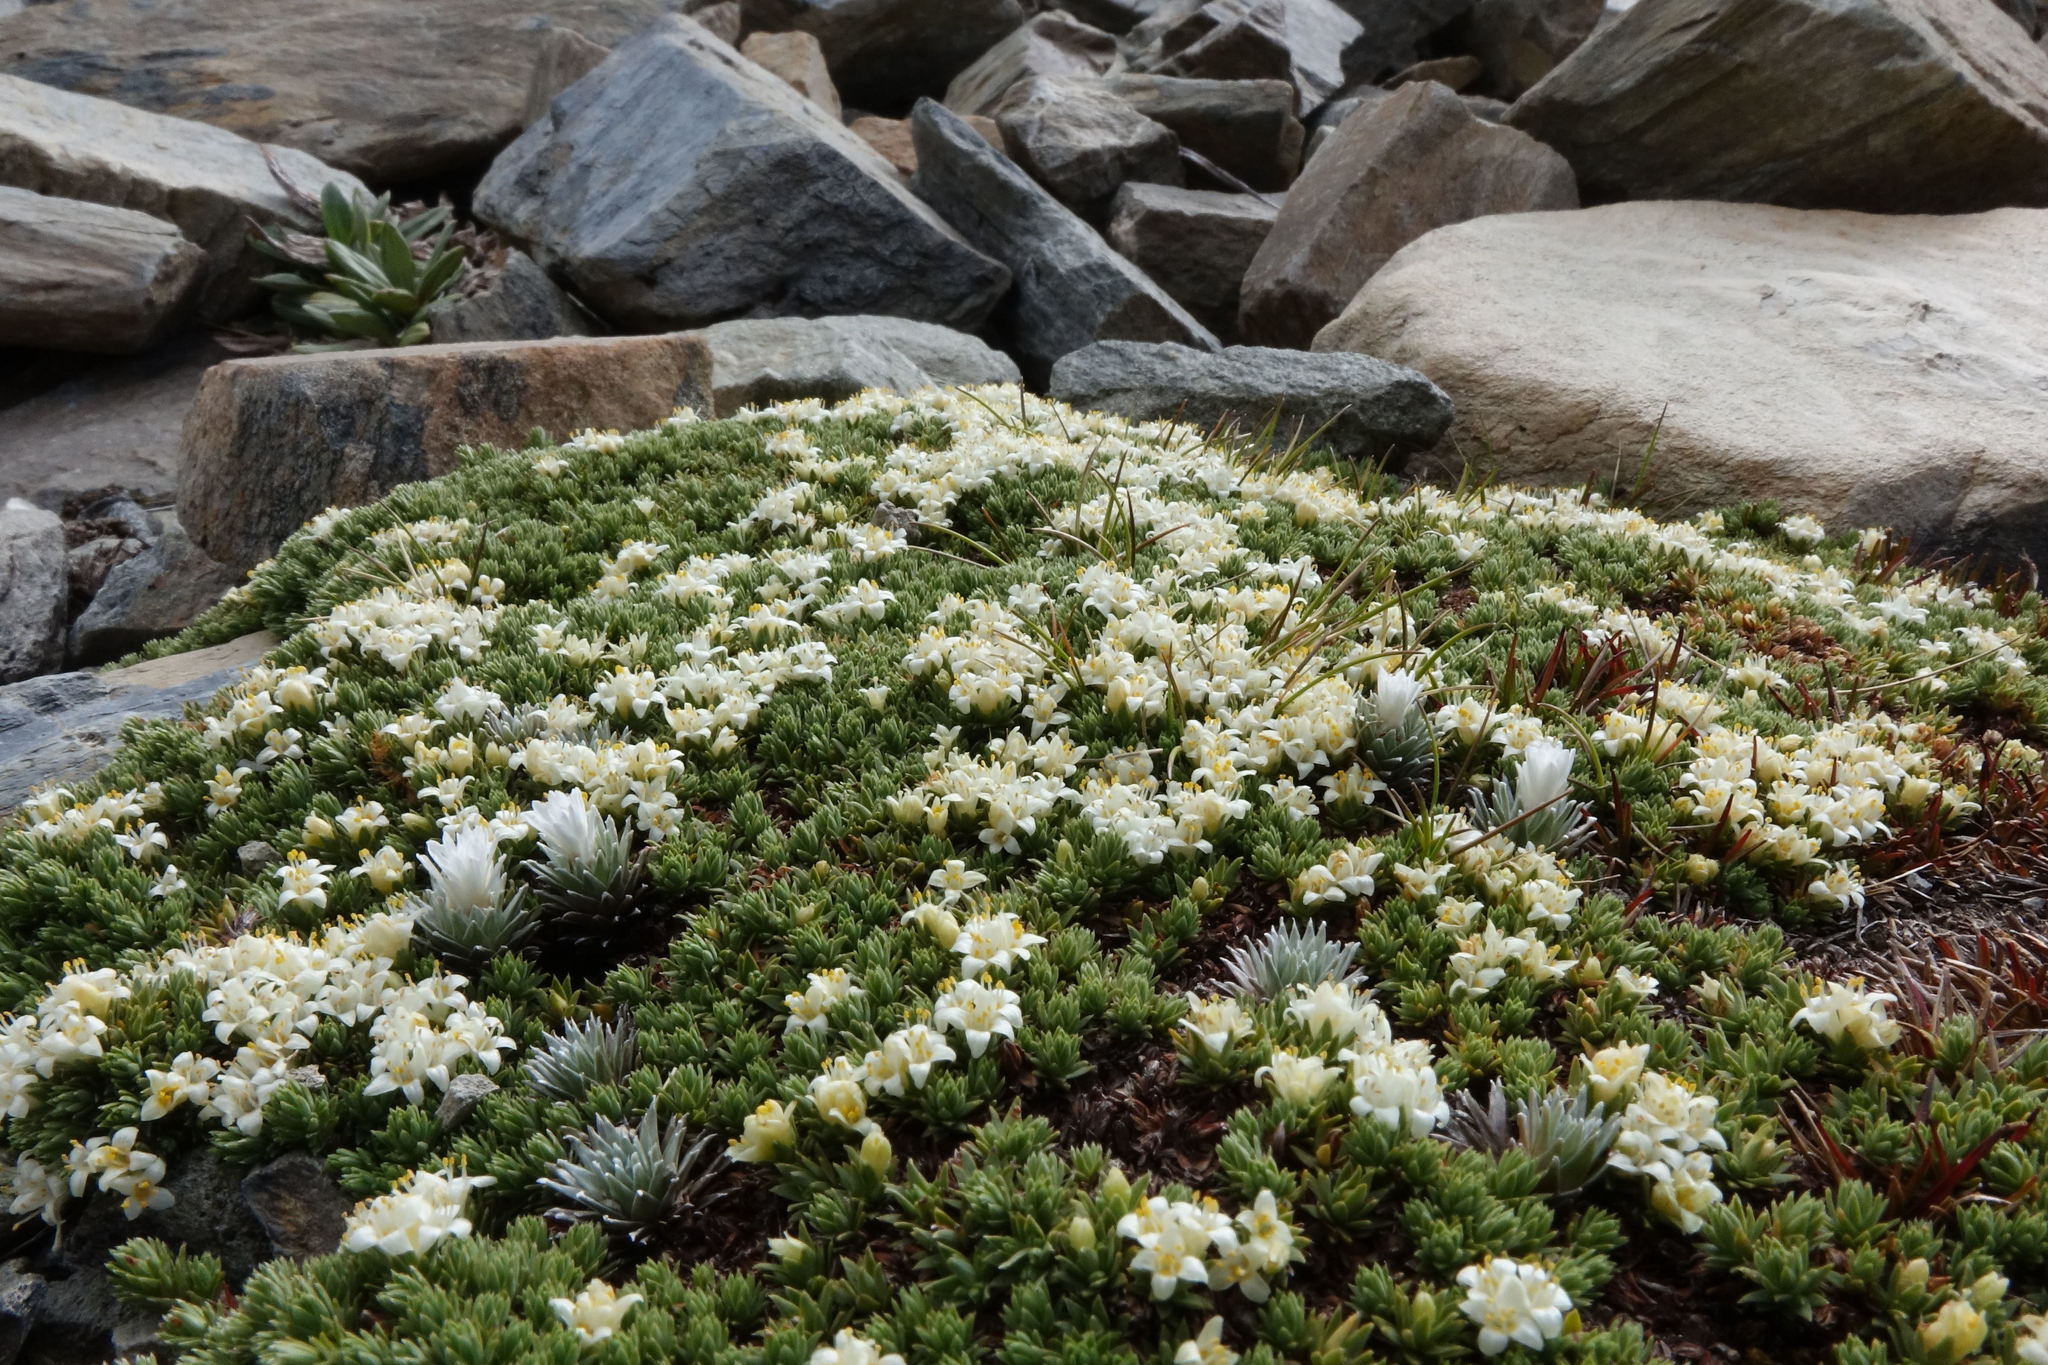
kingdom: Plantae
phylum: Tracheophyta
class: Magnoliopsida
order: Malvales
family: Thymelaeaceae
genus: Kelleria
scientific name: Kelleria croizatii
